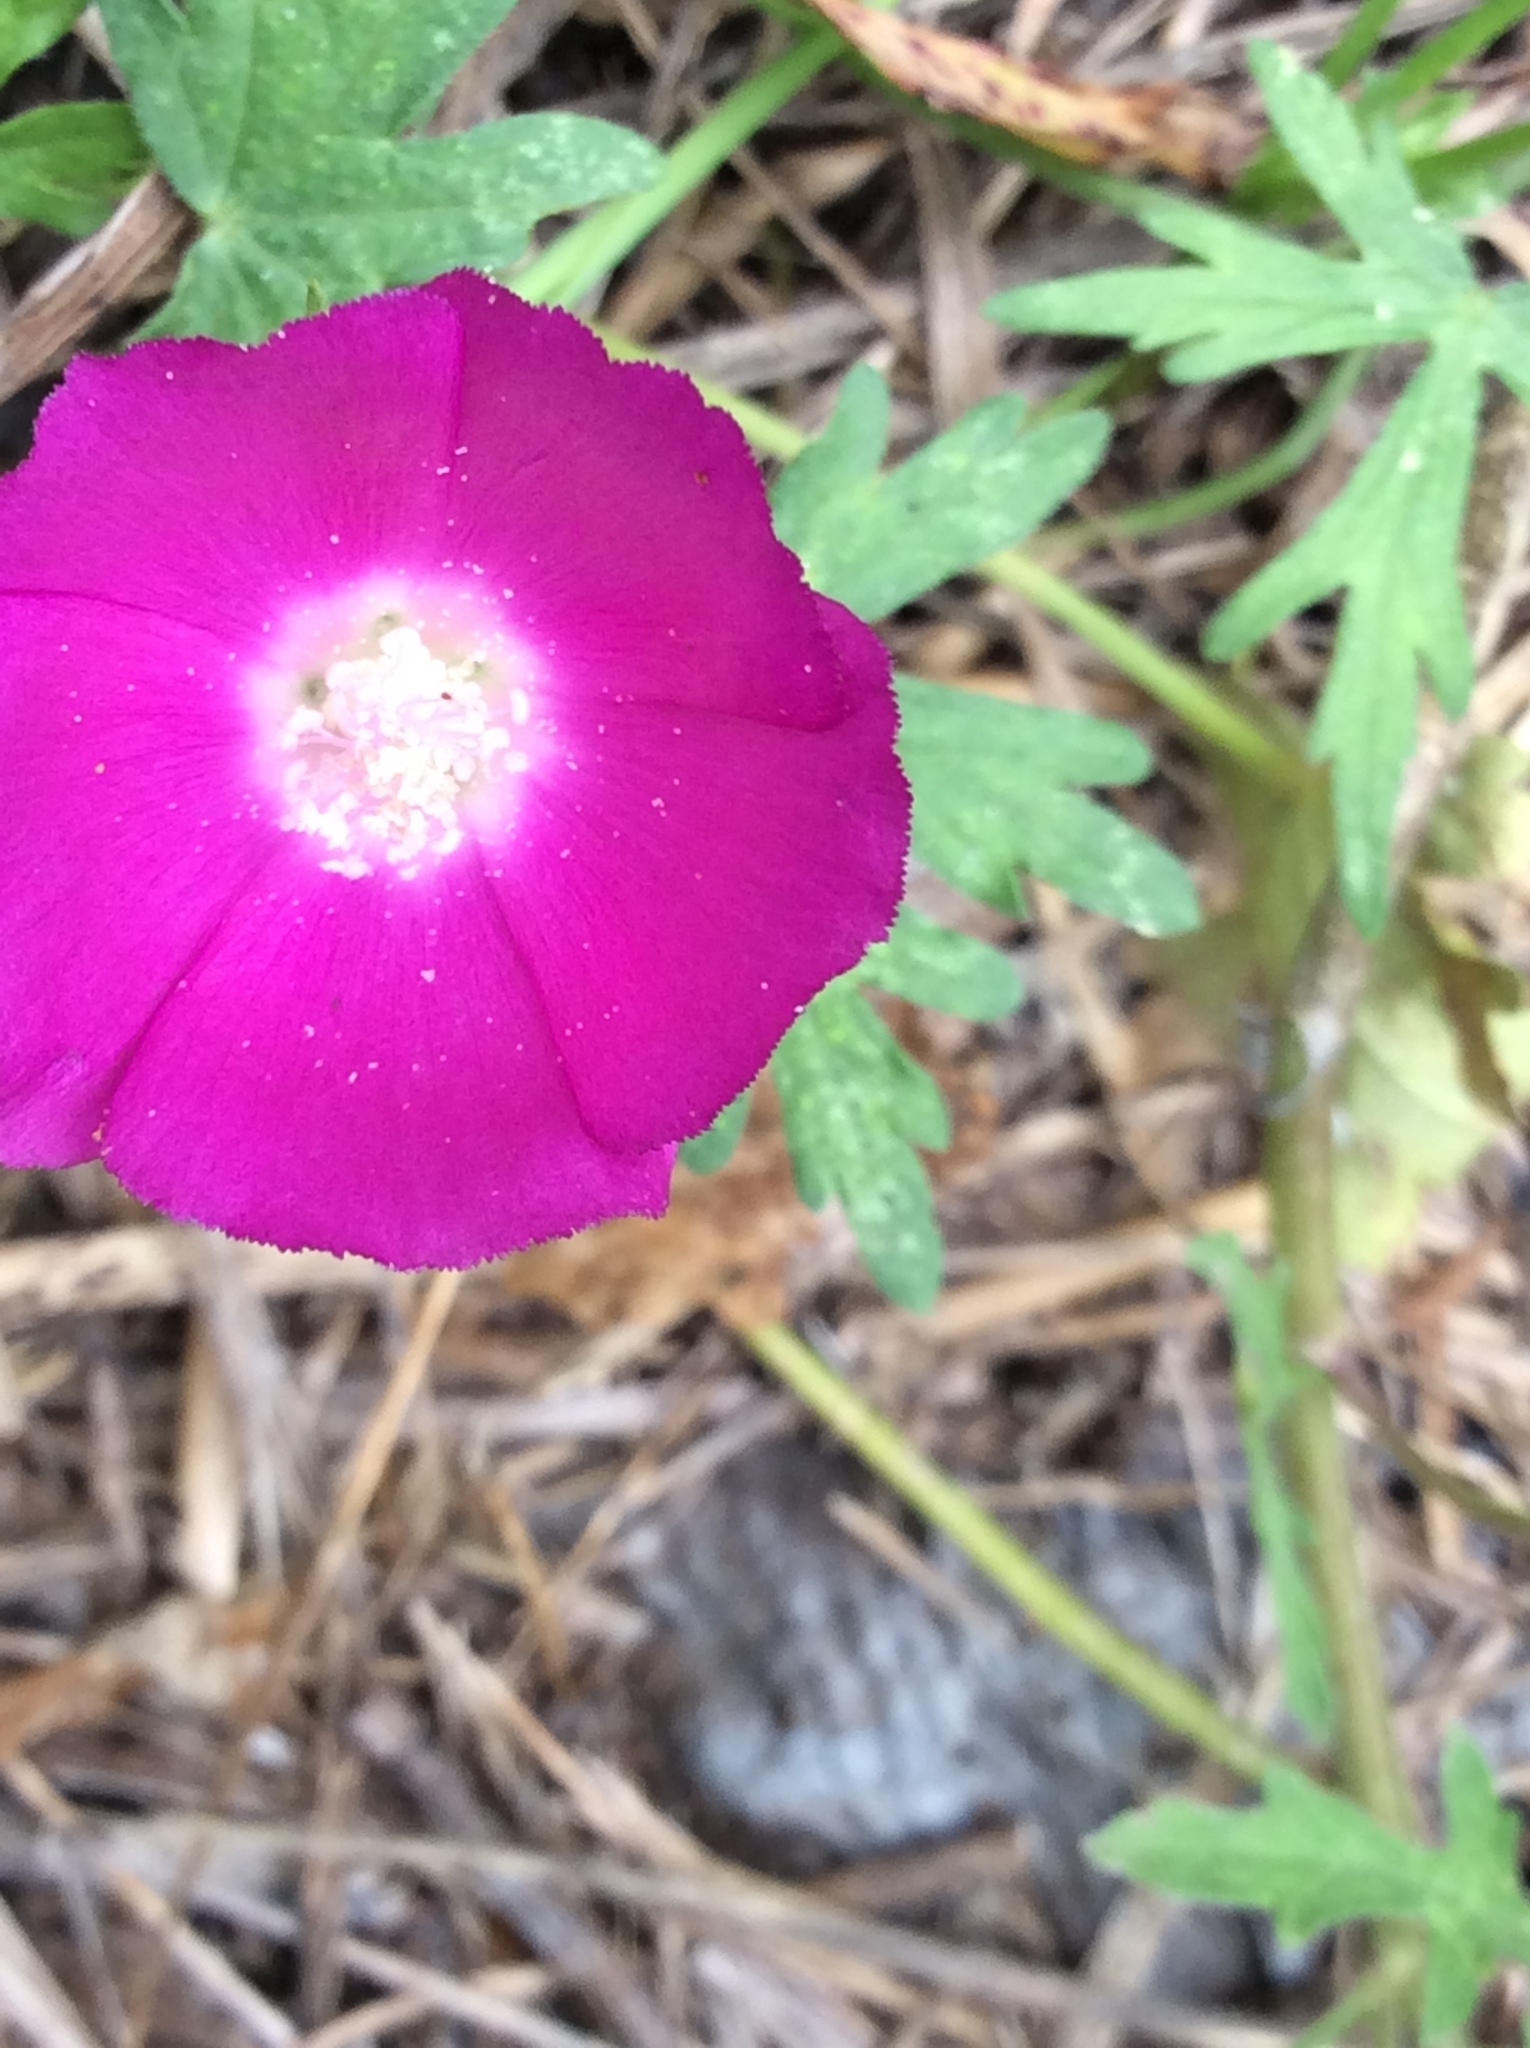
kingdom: Plantae
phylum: Tracheophyta
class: Magnoliopsida
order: Malvales
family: Malvaceae
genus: Callirhoe
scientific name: Callirhoe involucrata
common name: Purple poppy-mallow
